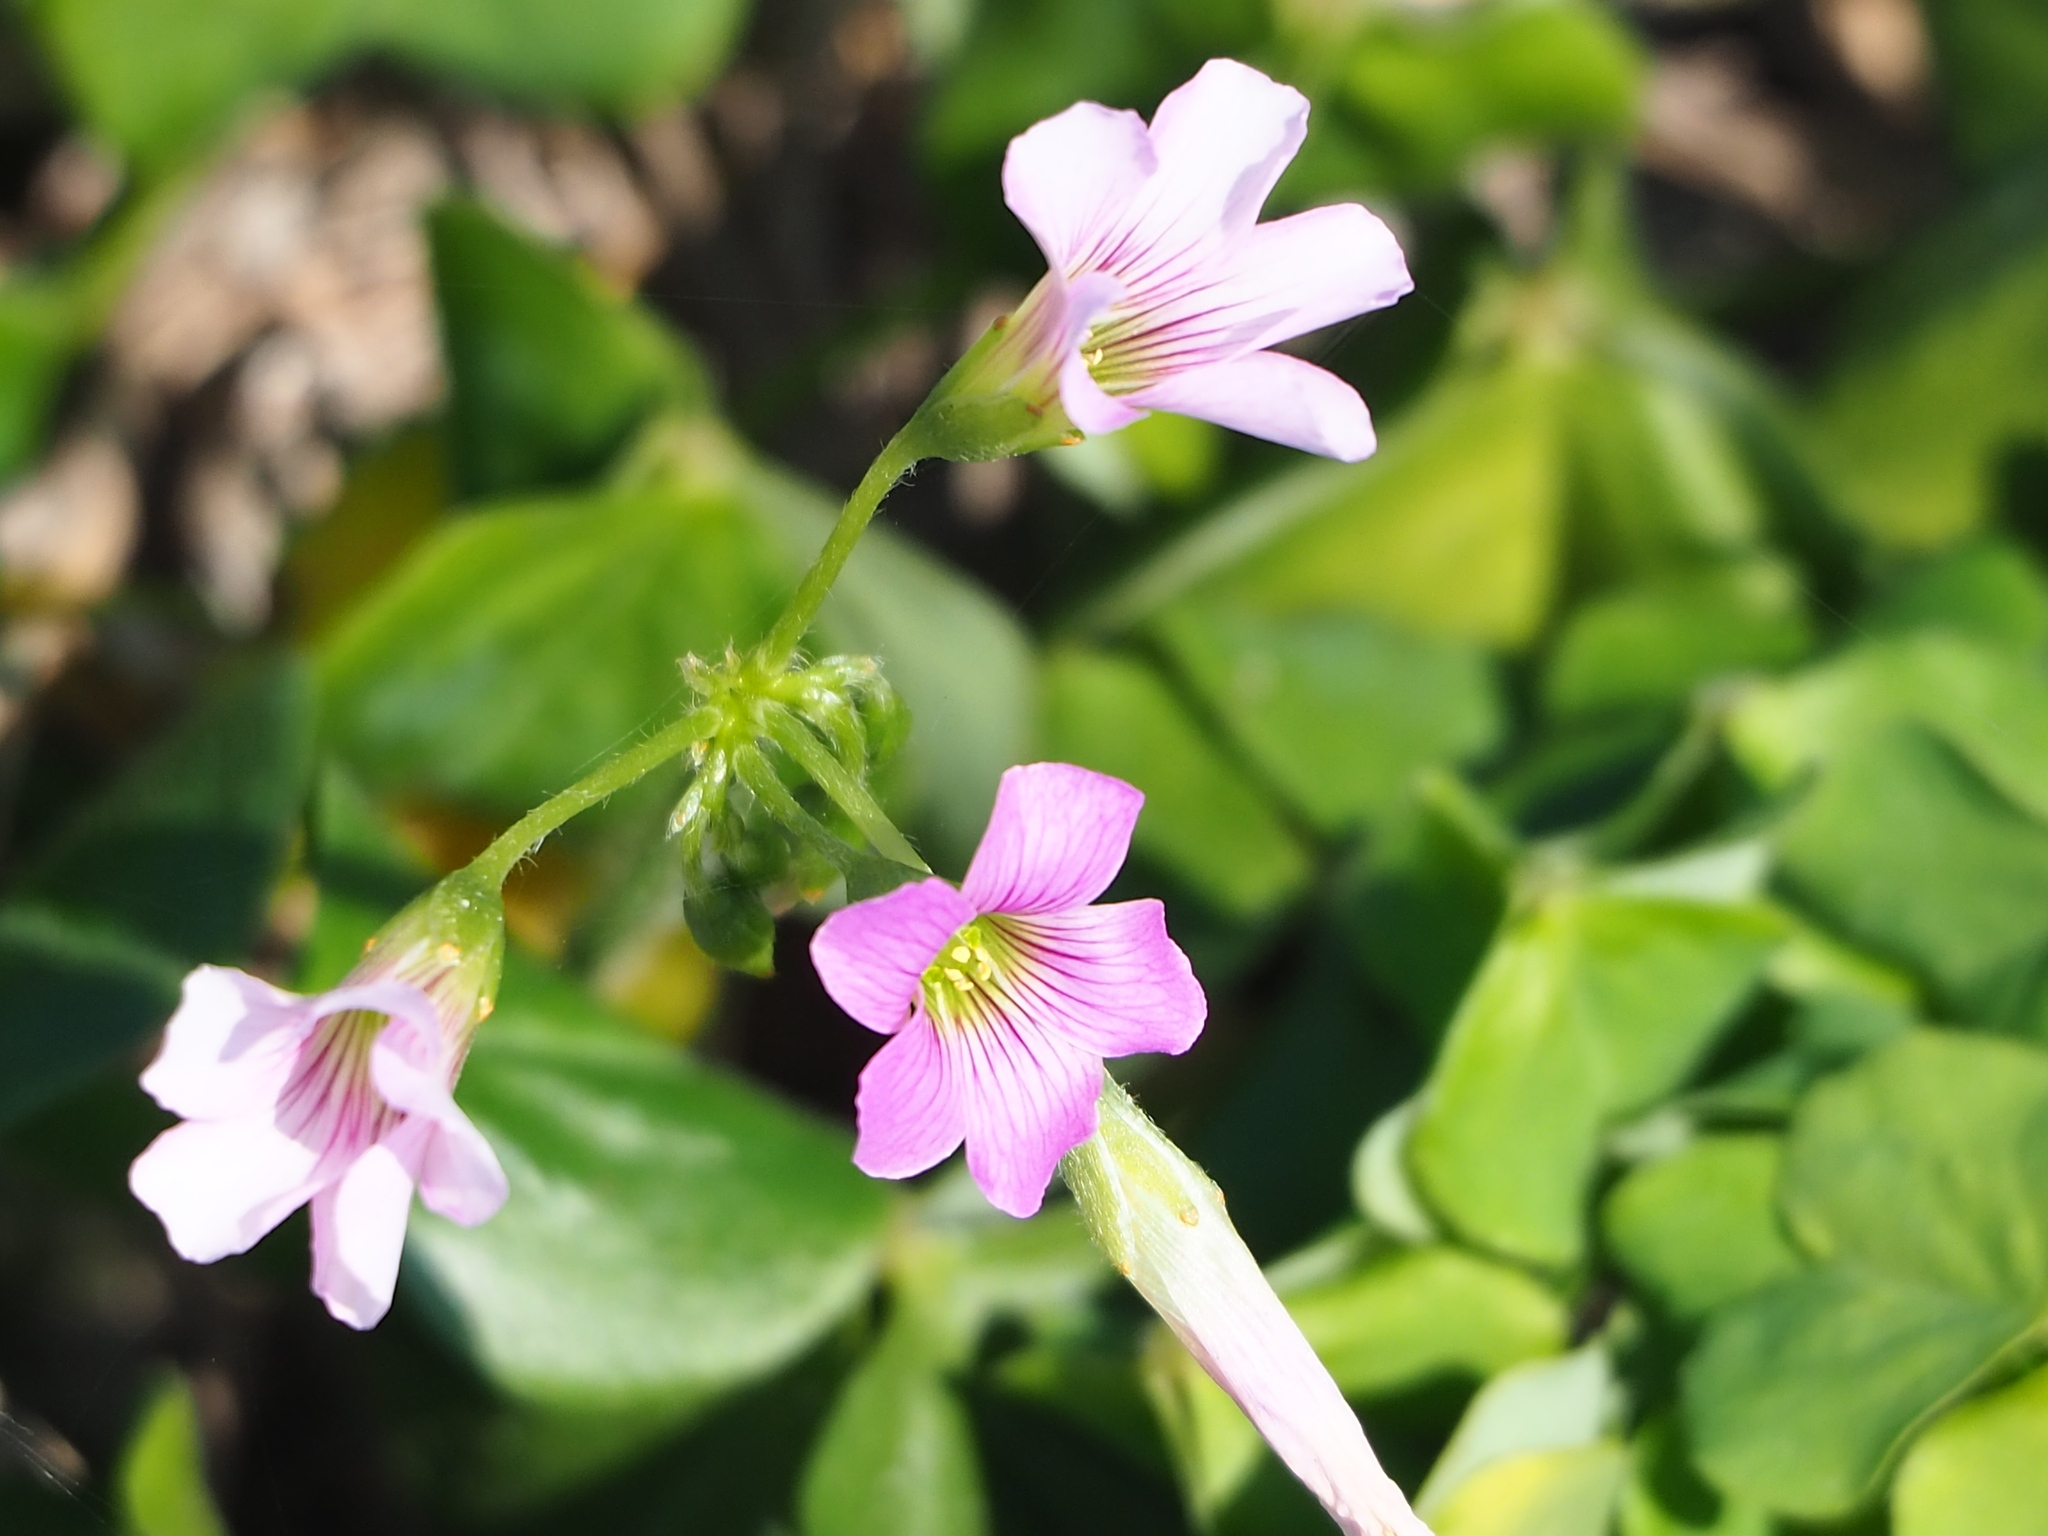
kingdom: Plantae
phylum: Tracheophyta
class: Magnoliopsida
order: Oxalidales
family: Oxalidaceae
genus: Oxalis
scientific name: Oxalis debilis
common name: Large-flowered pink-sorrel
